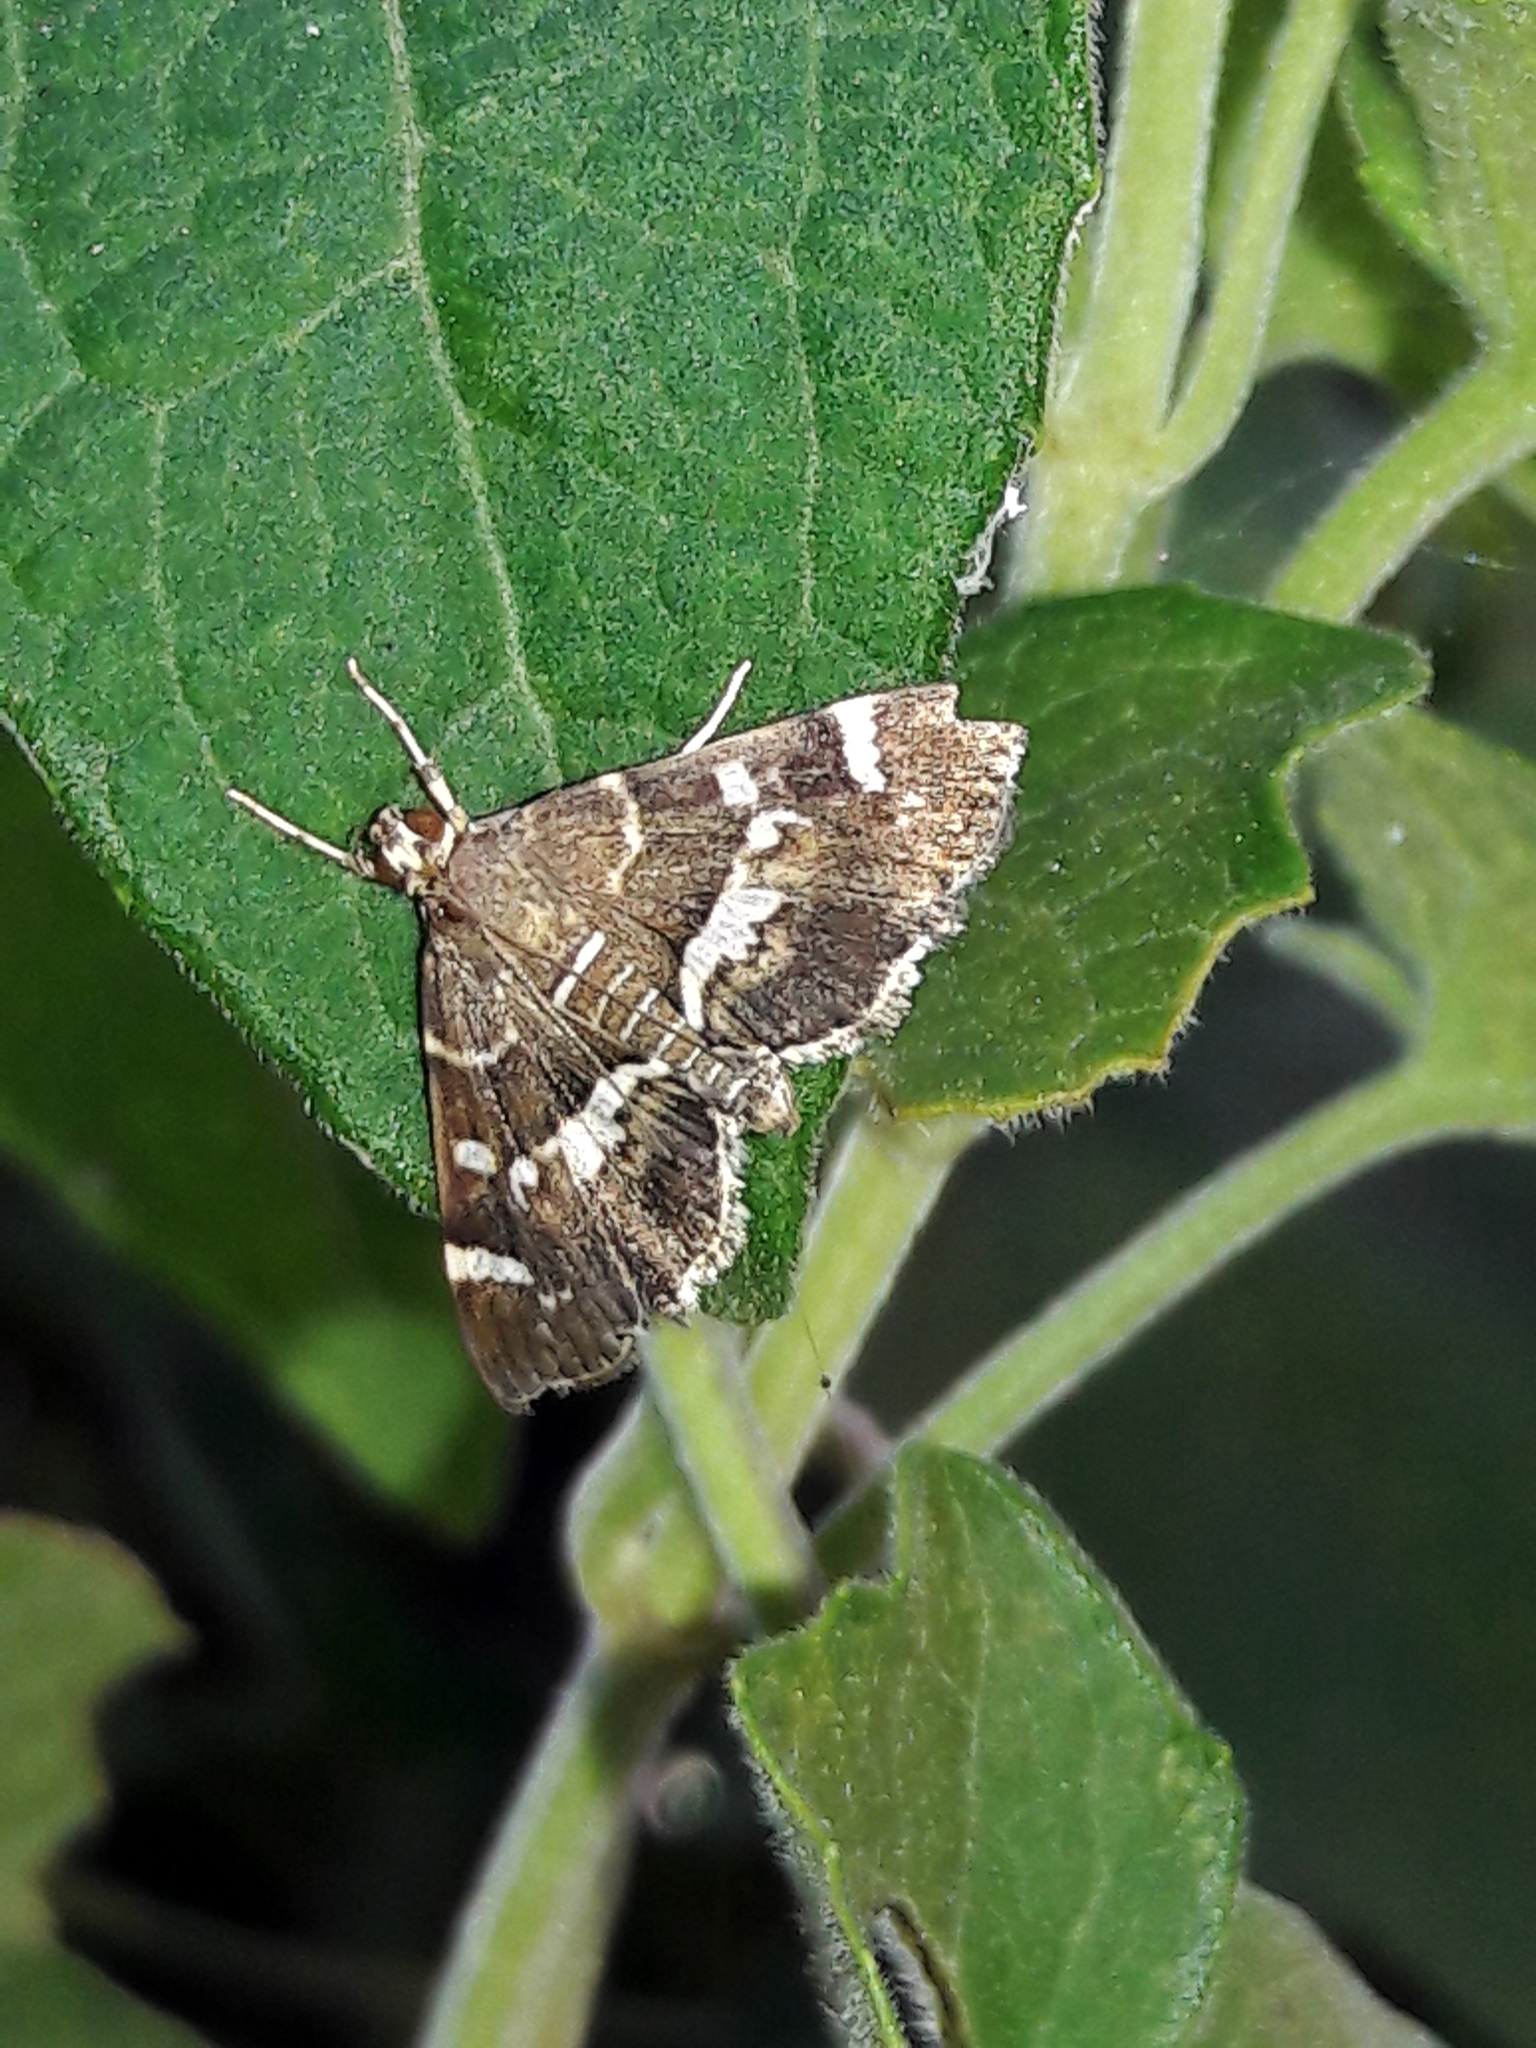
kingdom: Animalia
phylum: Arthropoda
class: Insecta
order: Lepidoptera
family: Crambidae
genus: Hymenia
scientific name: Hymenia perspectalis
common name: Spotted beet webworm
